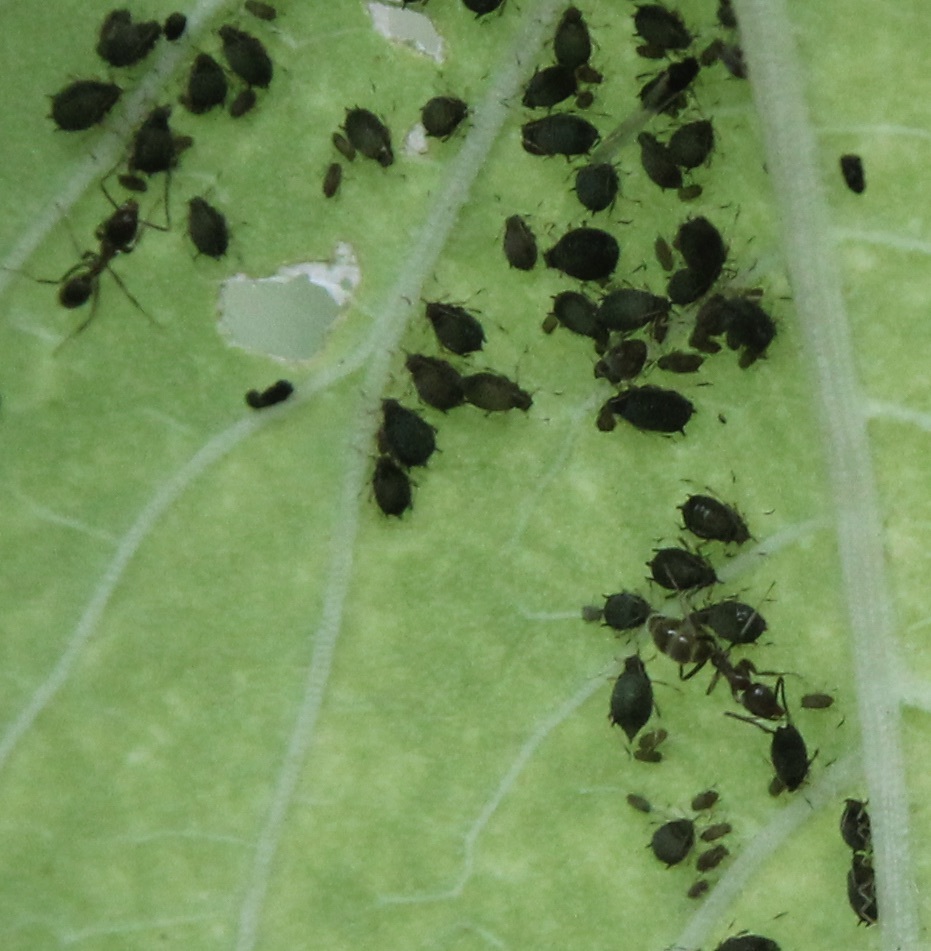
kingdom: Animalia
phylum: Arthropoda
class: Insecta
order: Hymenoptera
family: Formicidae
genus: Linepithema
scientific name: Linepithema humile
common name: Argentine ant
